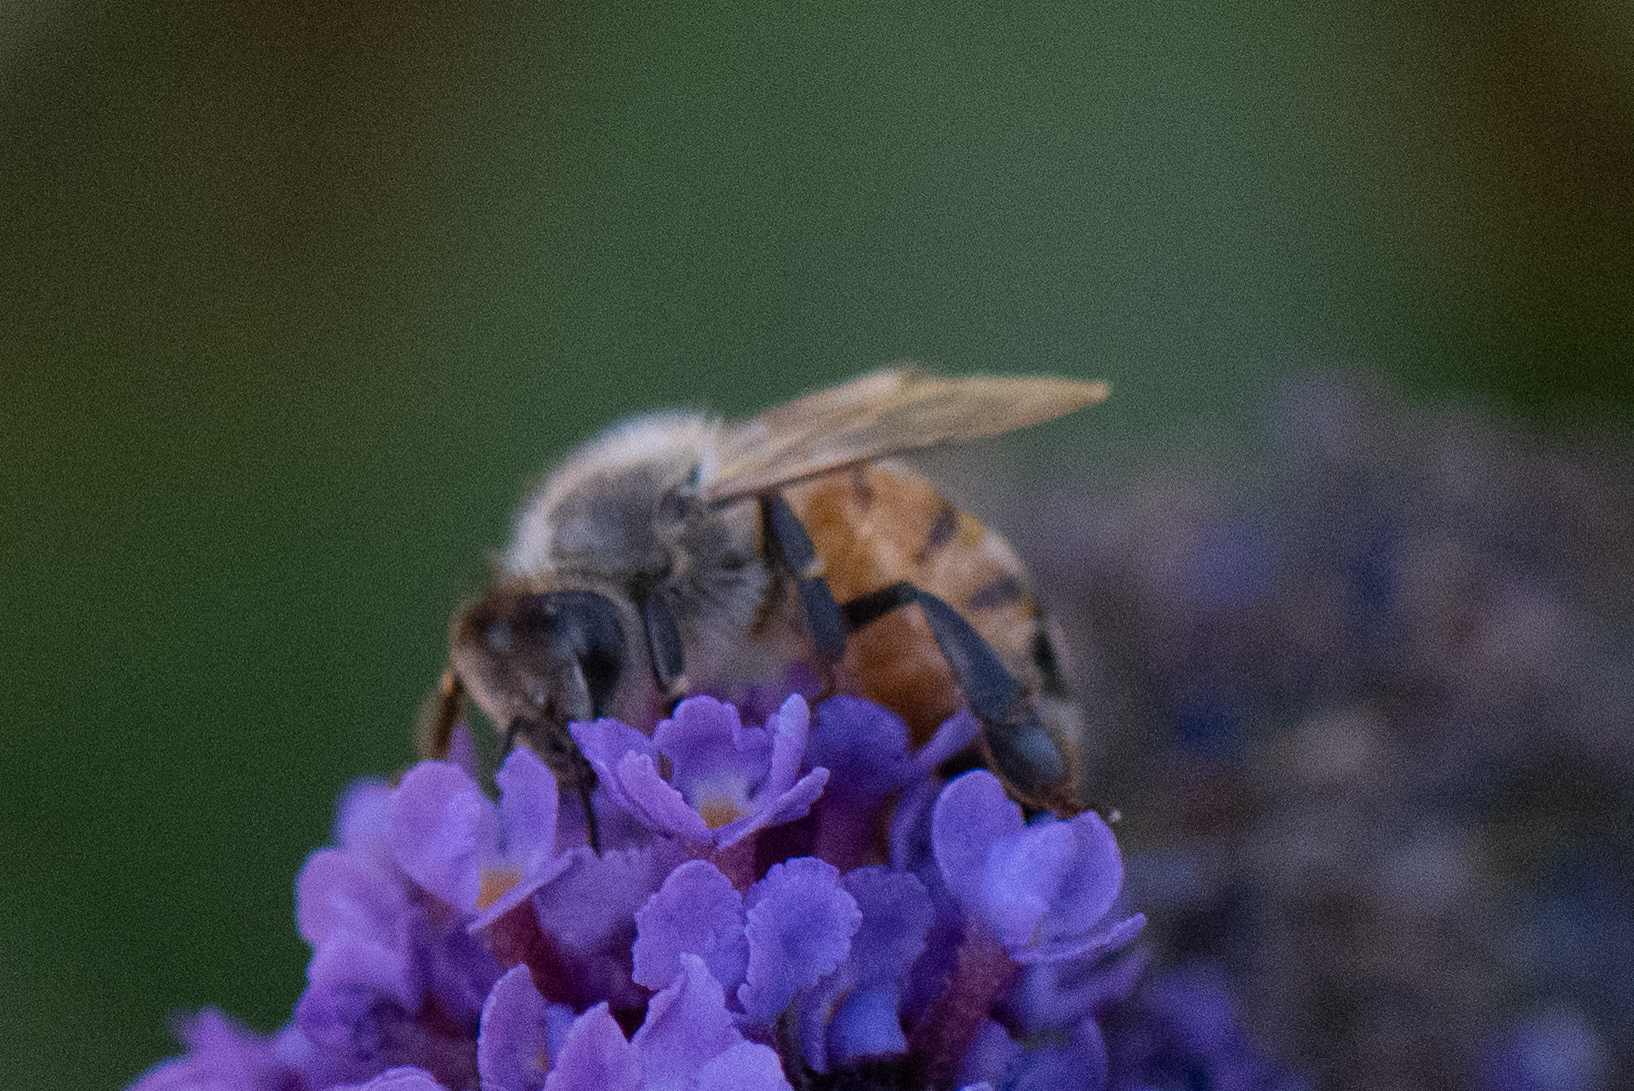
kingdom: Animalia
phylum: Arthropoda
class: Insecta
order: Hymenoptera
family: Apidae
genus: Apis
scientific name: Apis mellifera
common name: Honey bee
